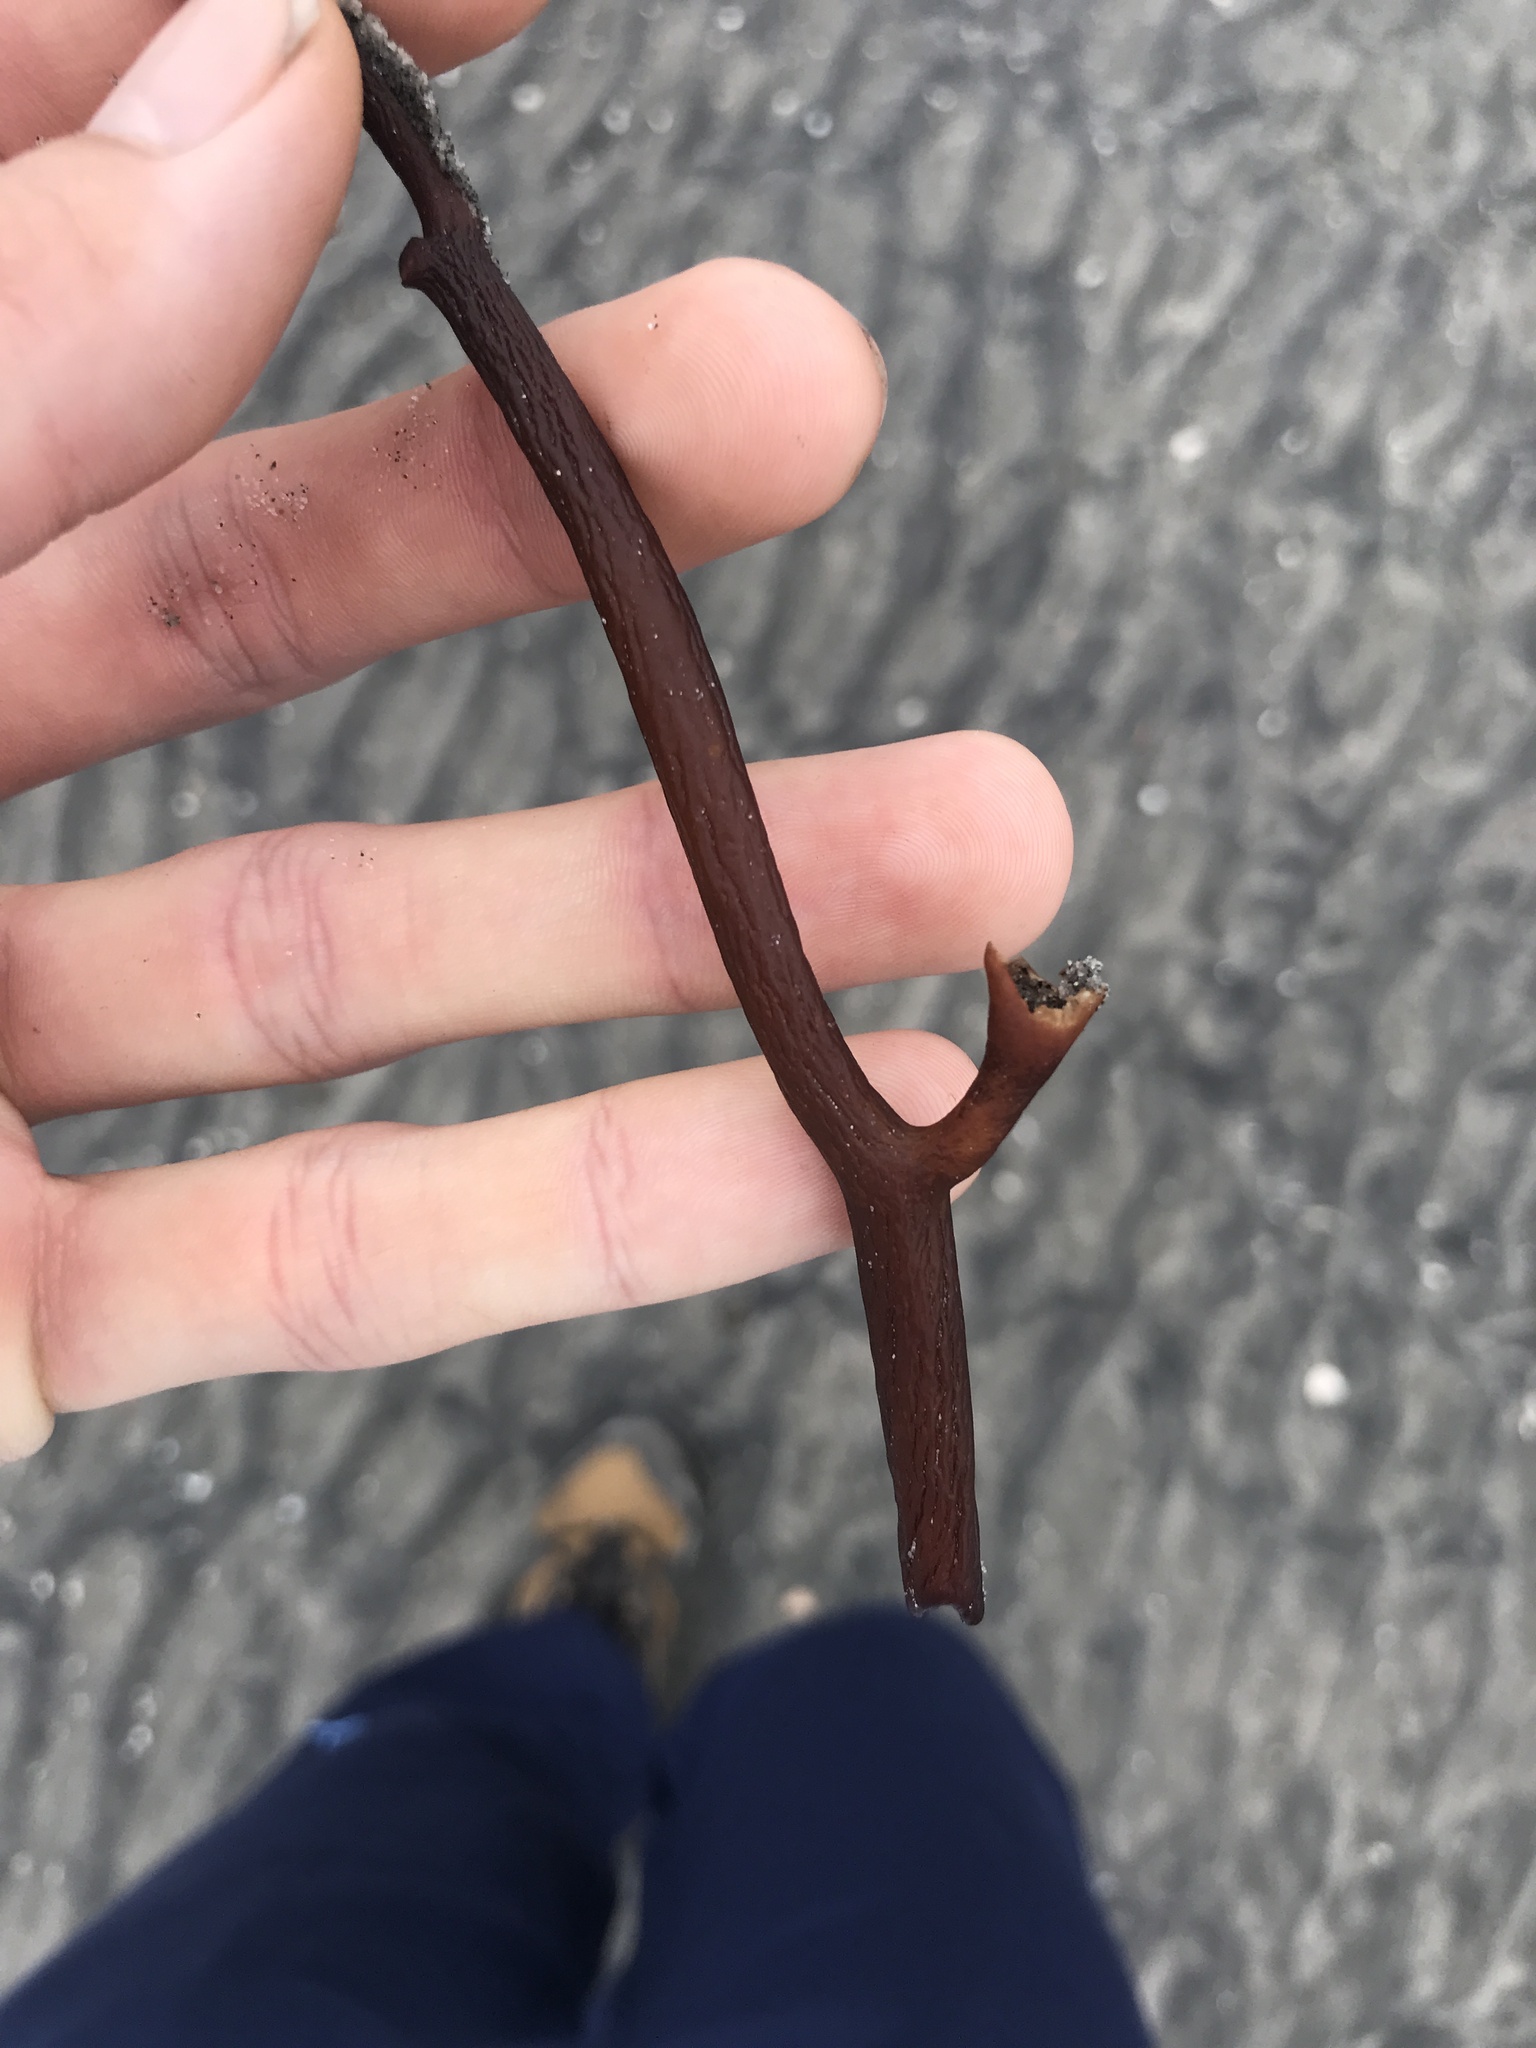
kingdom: Chromista
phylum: Ochrophyta
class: Phaeophyceae
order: Laminariales
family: Laminariaceae
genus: Macrocystis
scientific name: Macrocystis pyrifera
